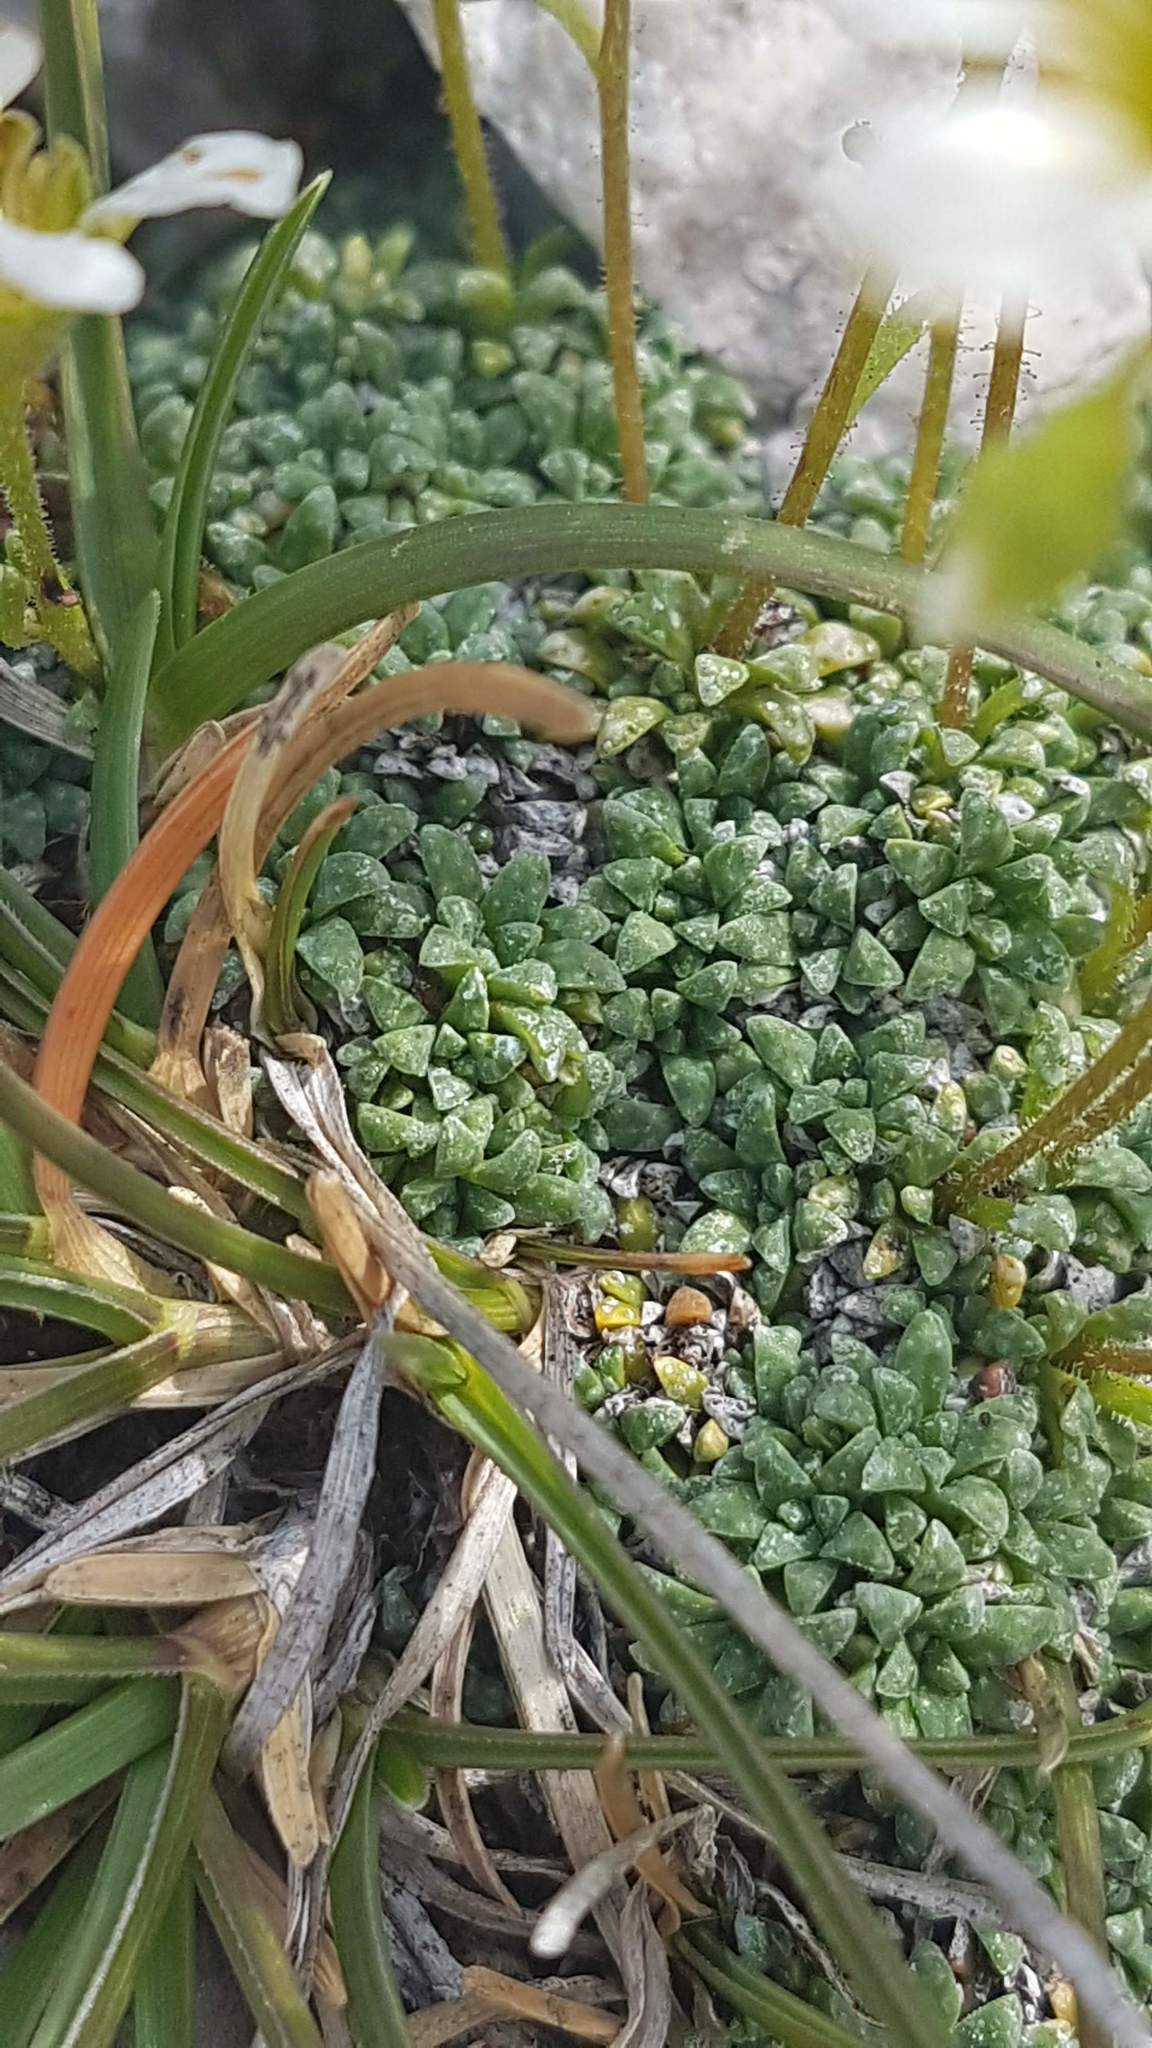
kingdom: Plantae
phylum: Tracheophyta
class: Magnoliopsida
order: Saxifragales
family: Saxifragaceae
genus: Saxifraga
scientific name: Saxifraga caesia
